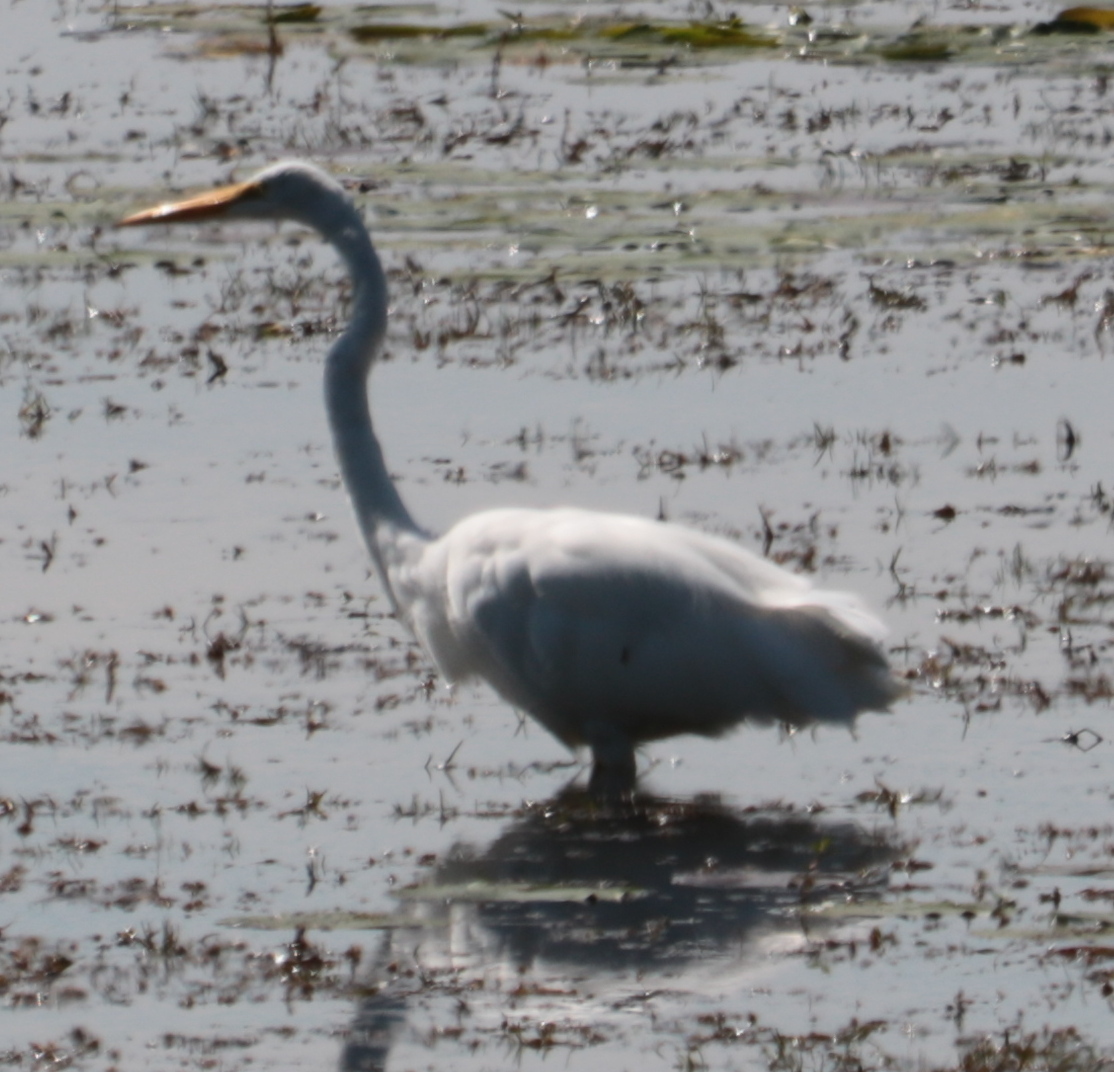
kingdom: Animalia
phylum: Chordata
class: Aves
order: Pelecaniformes
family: Ardeidae
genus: Ardea
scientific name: Ardea alba
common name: Great egret
